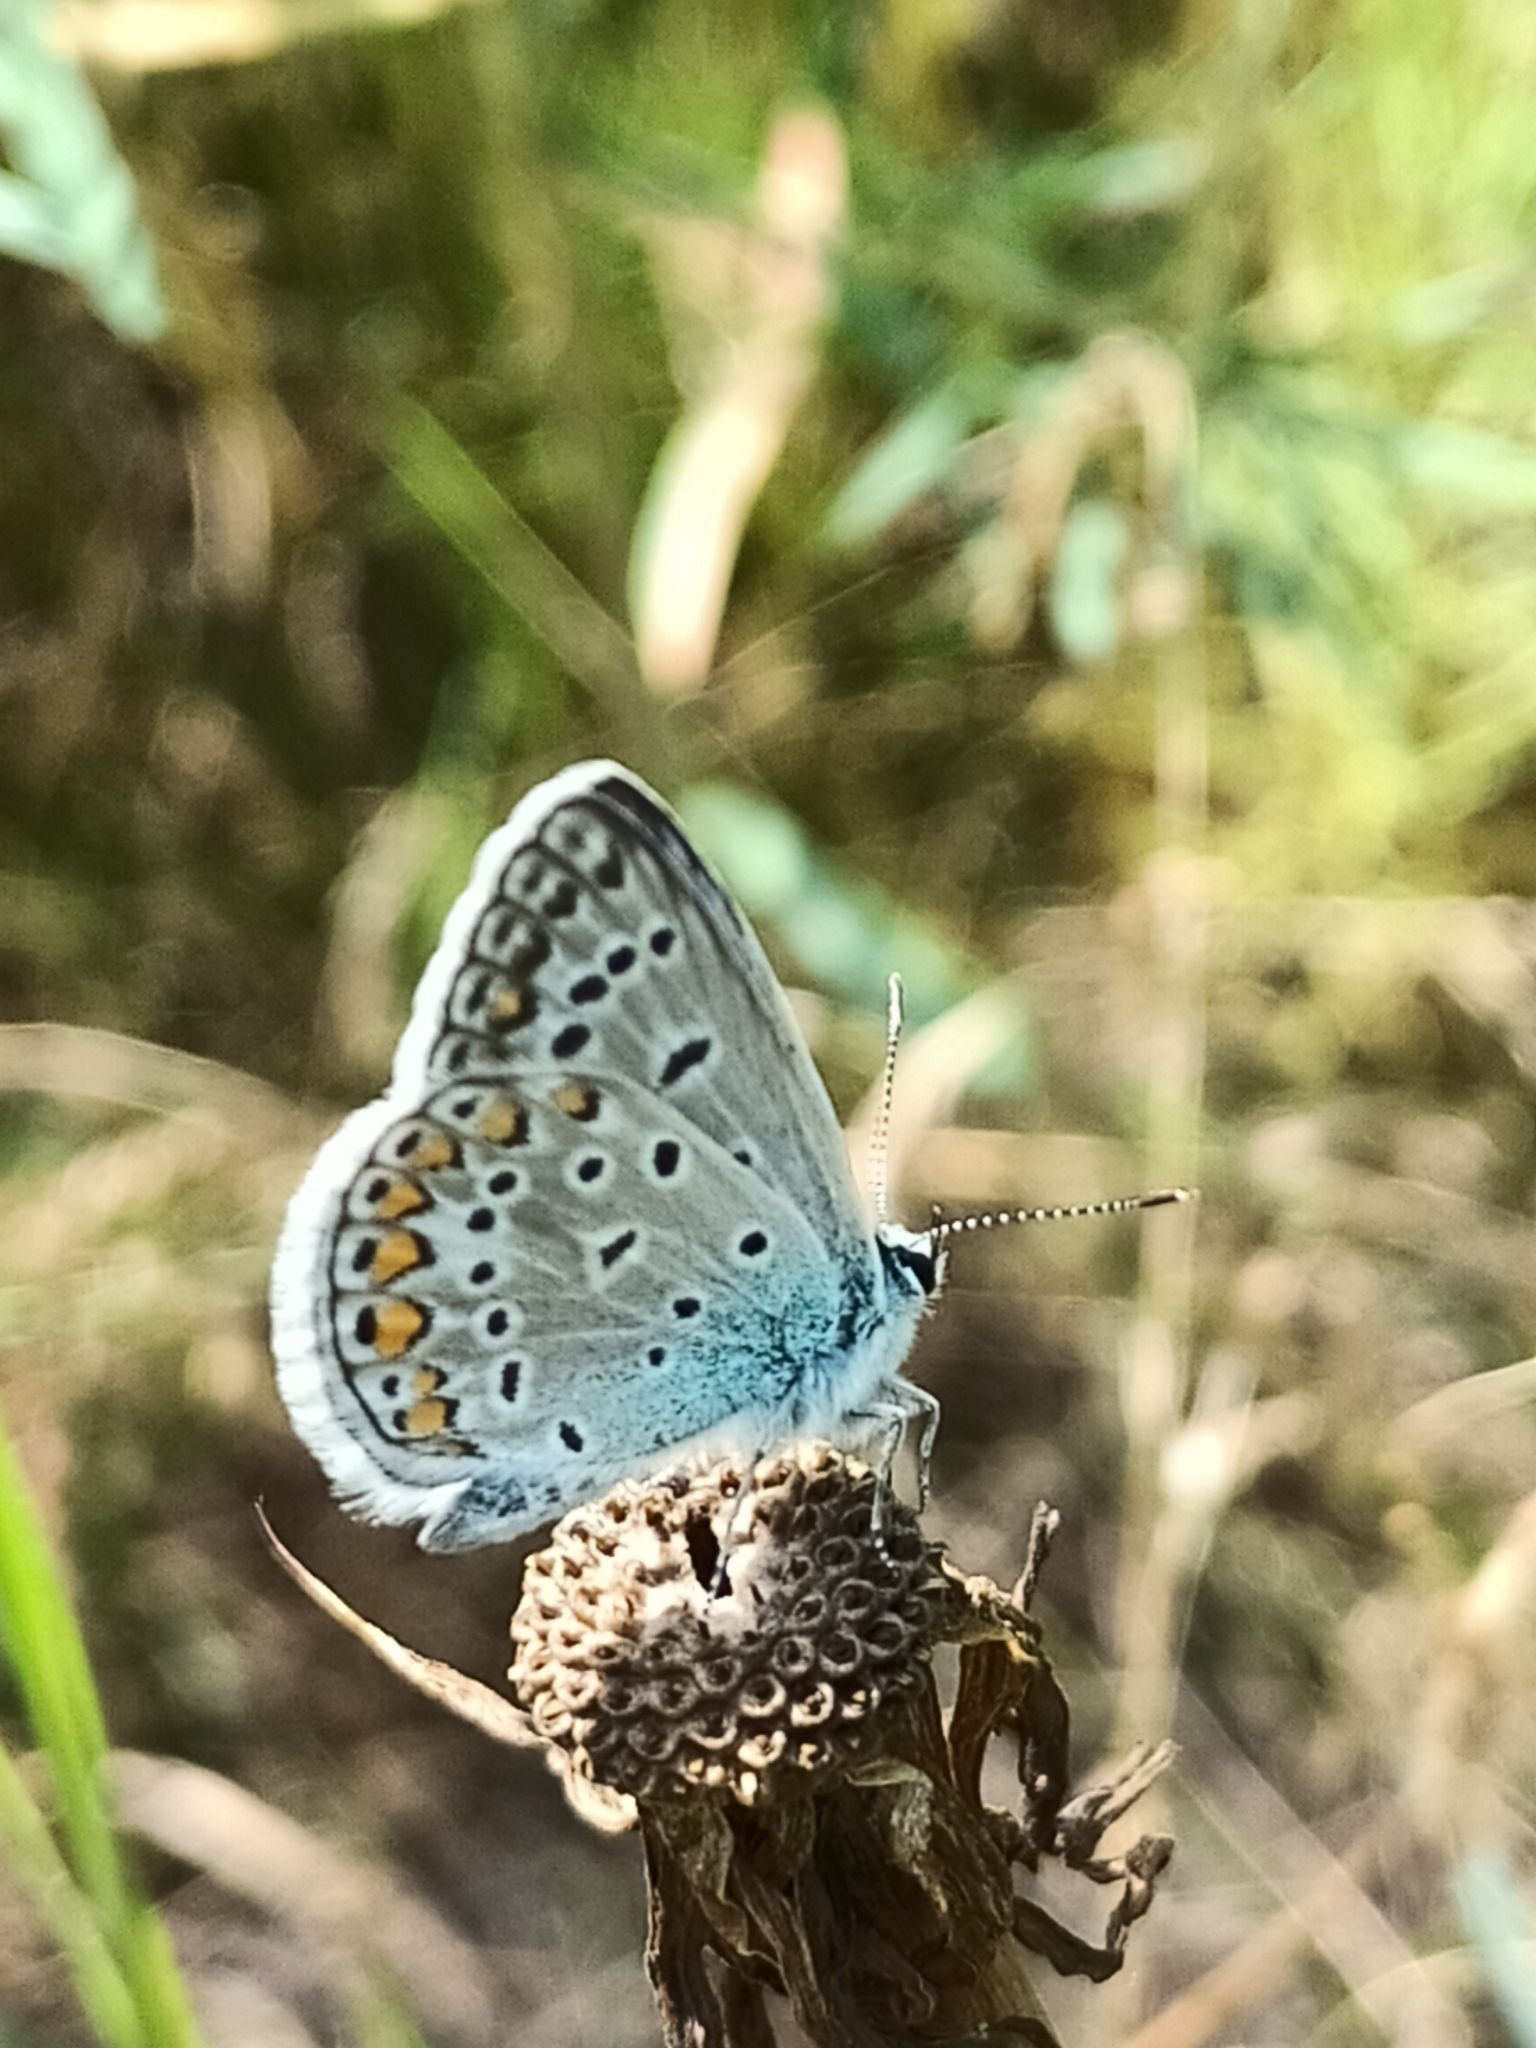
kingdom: Animalia
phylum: Arthropoda
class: Insecta
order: Lepidoptera
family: Lycaenidae
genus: Polyommatus
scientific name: Polyommatus icarus
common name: Common blue
